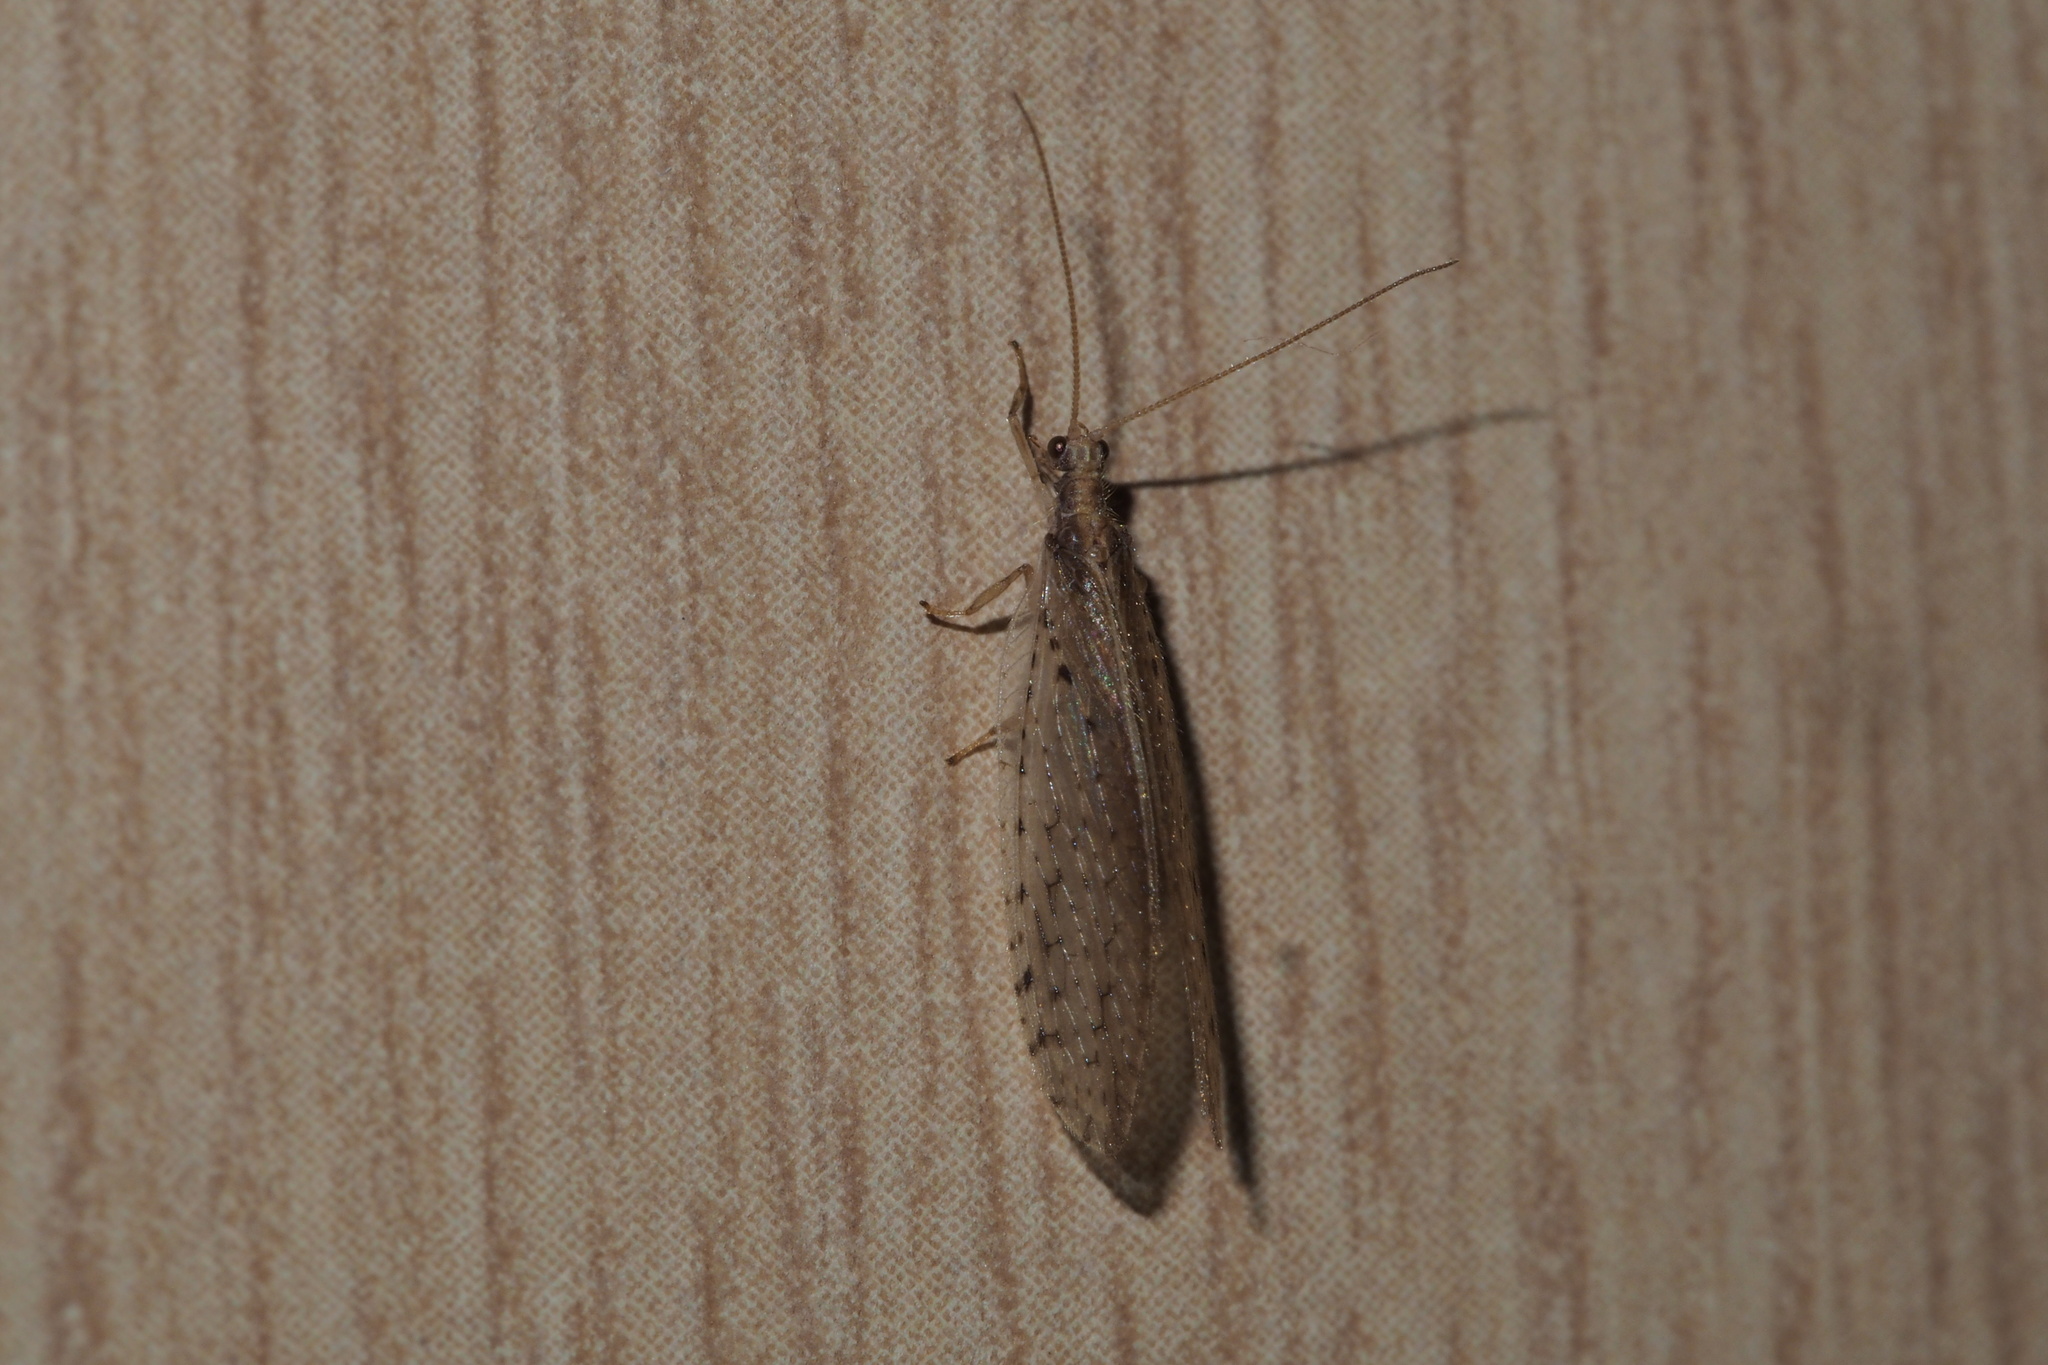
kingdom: Animalia
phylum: Arthropoda
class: Insecta
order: Neuroptera
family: Hemerobiidae
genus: Micromus
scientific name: Micromus linearis
